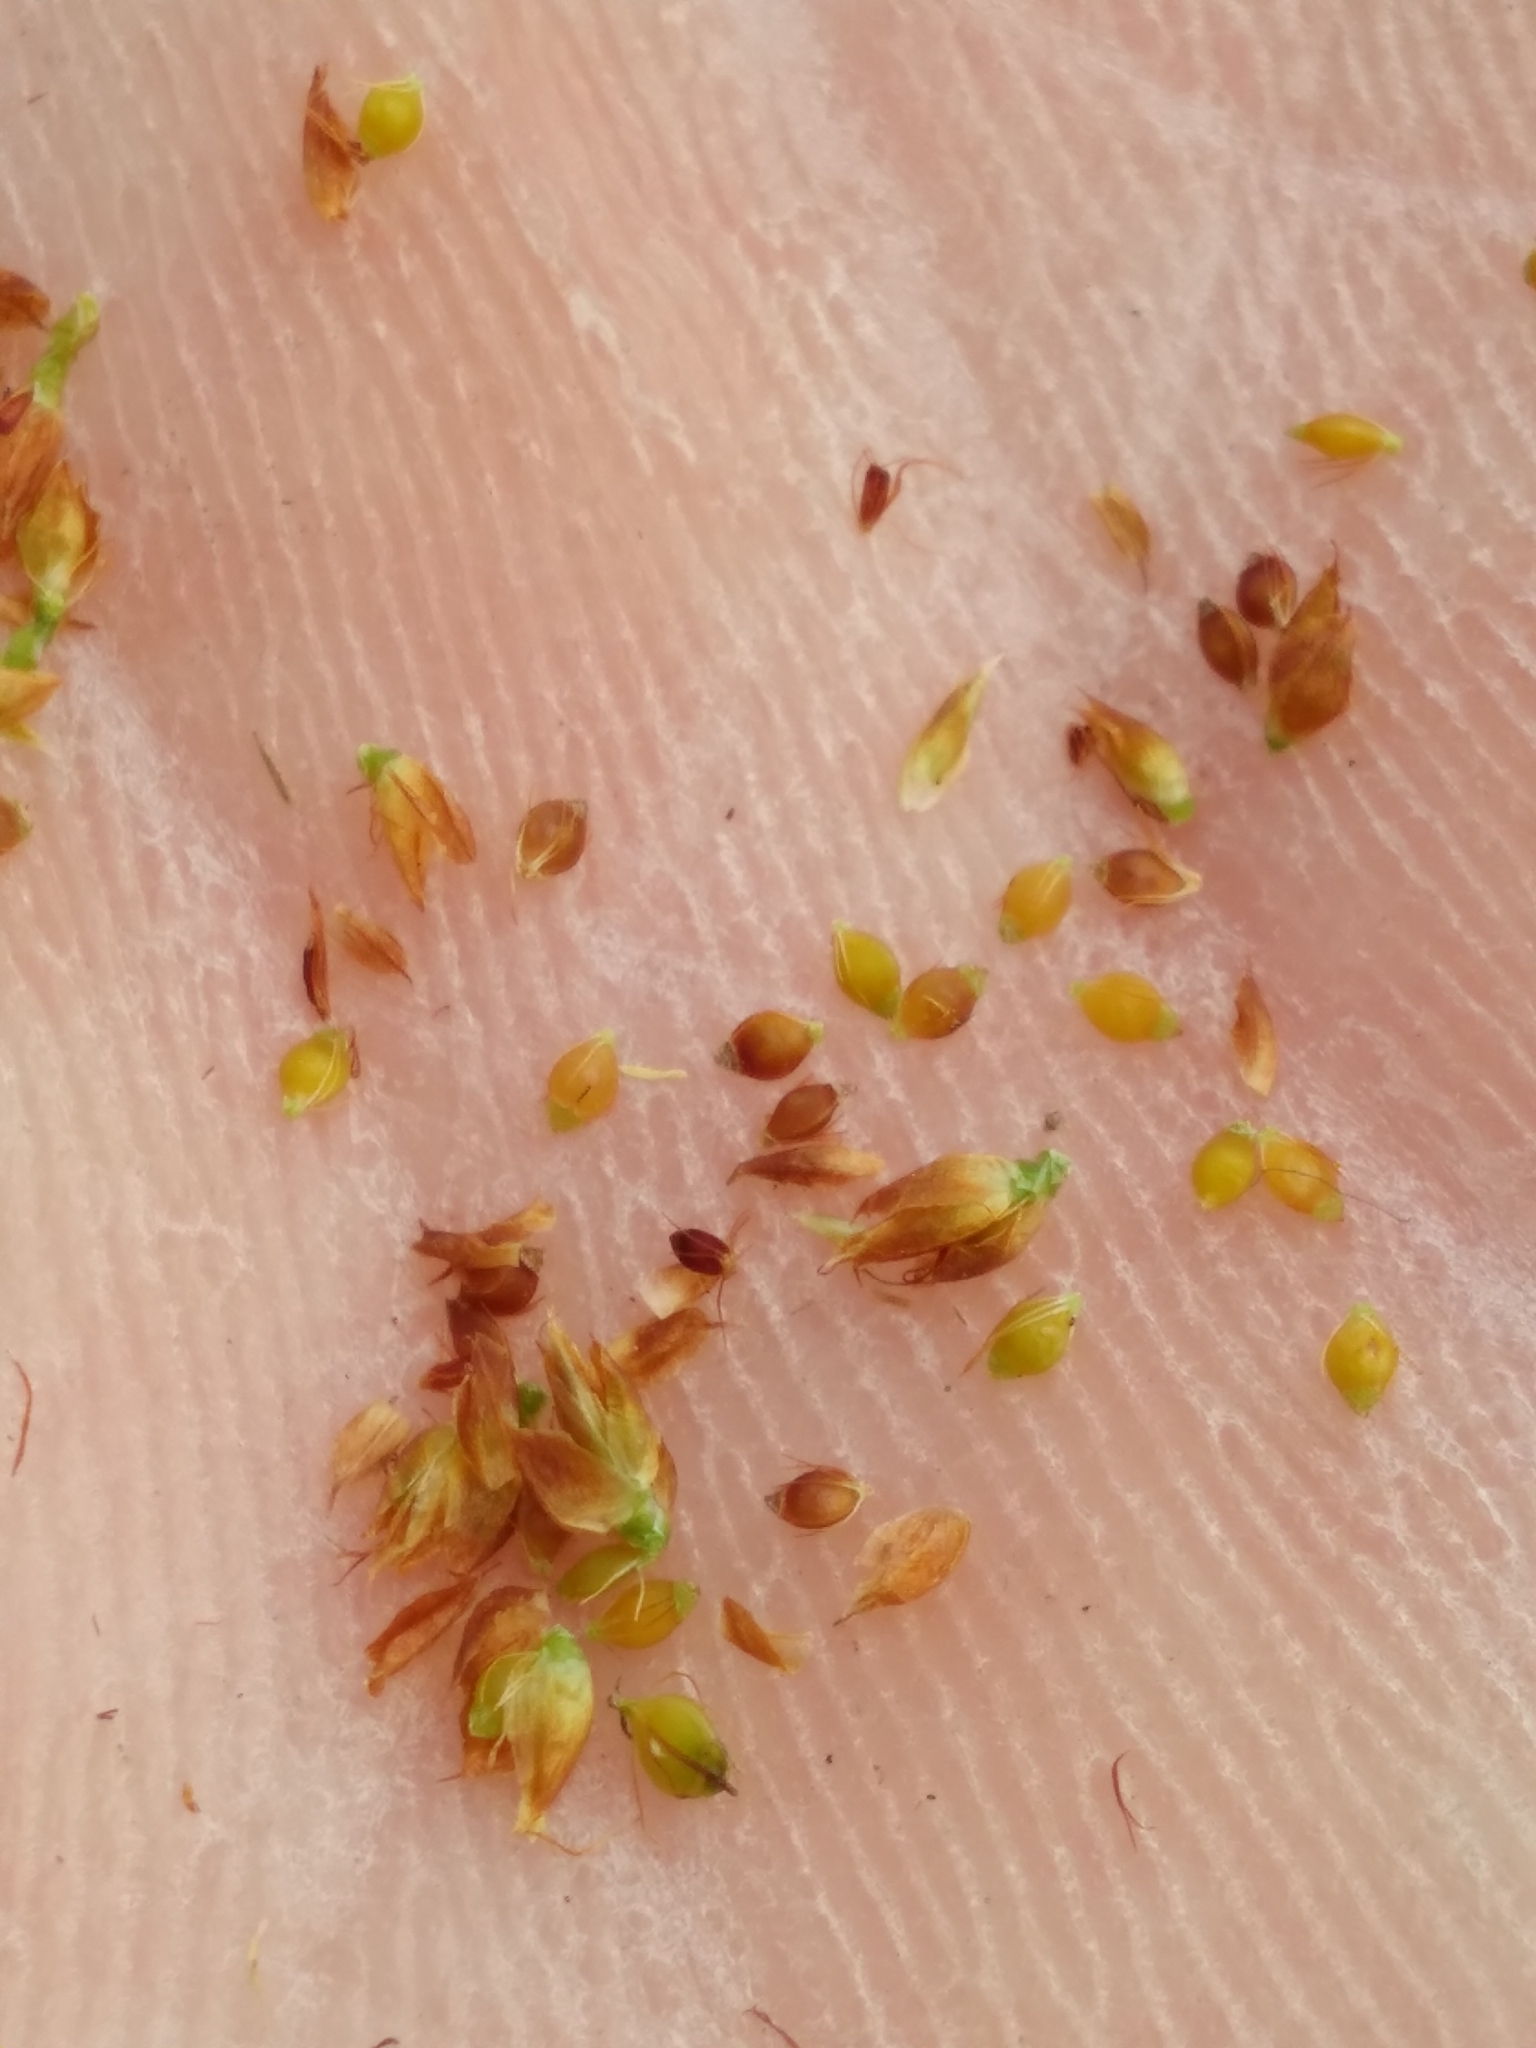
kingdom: Plantae
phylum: Tracheophyta
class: Liliopsida
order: Poales
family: Cyperaceae
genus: Rhynchospora
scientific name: Rhynchospora fernaldii
